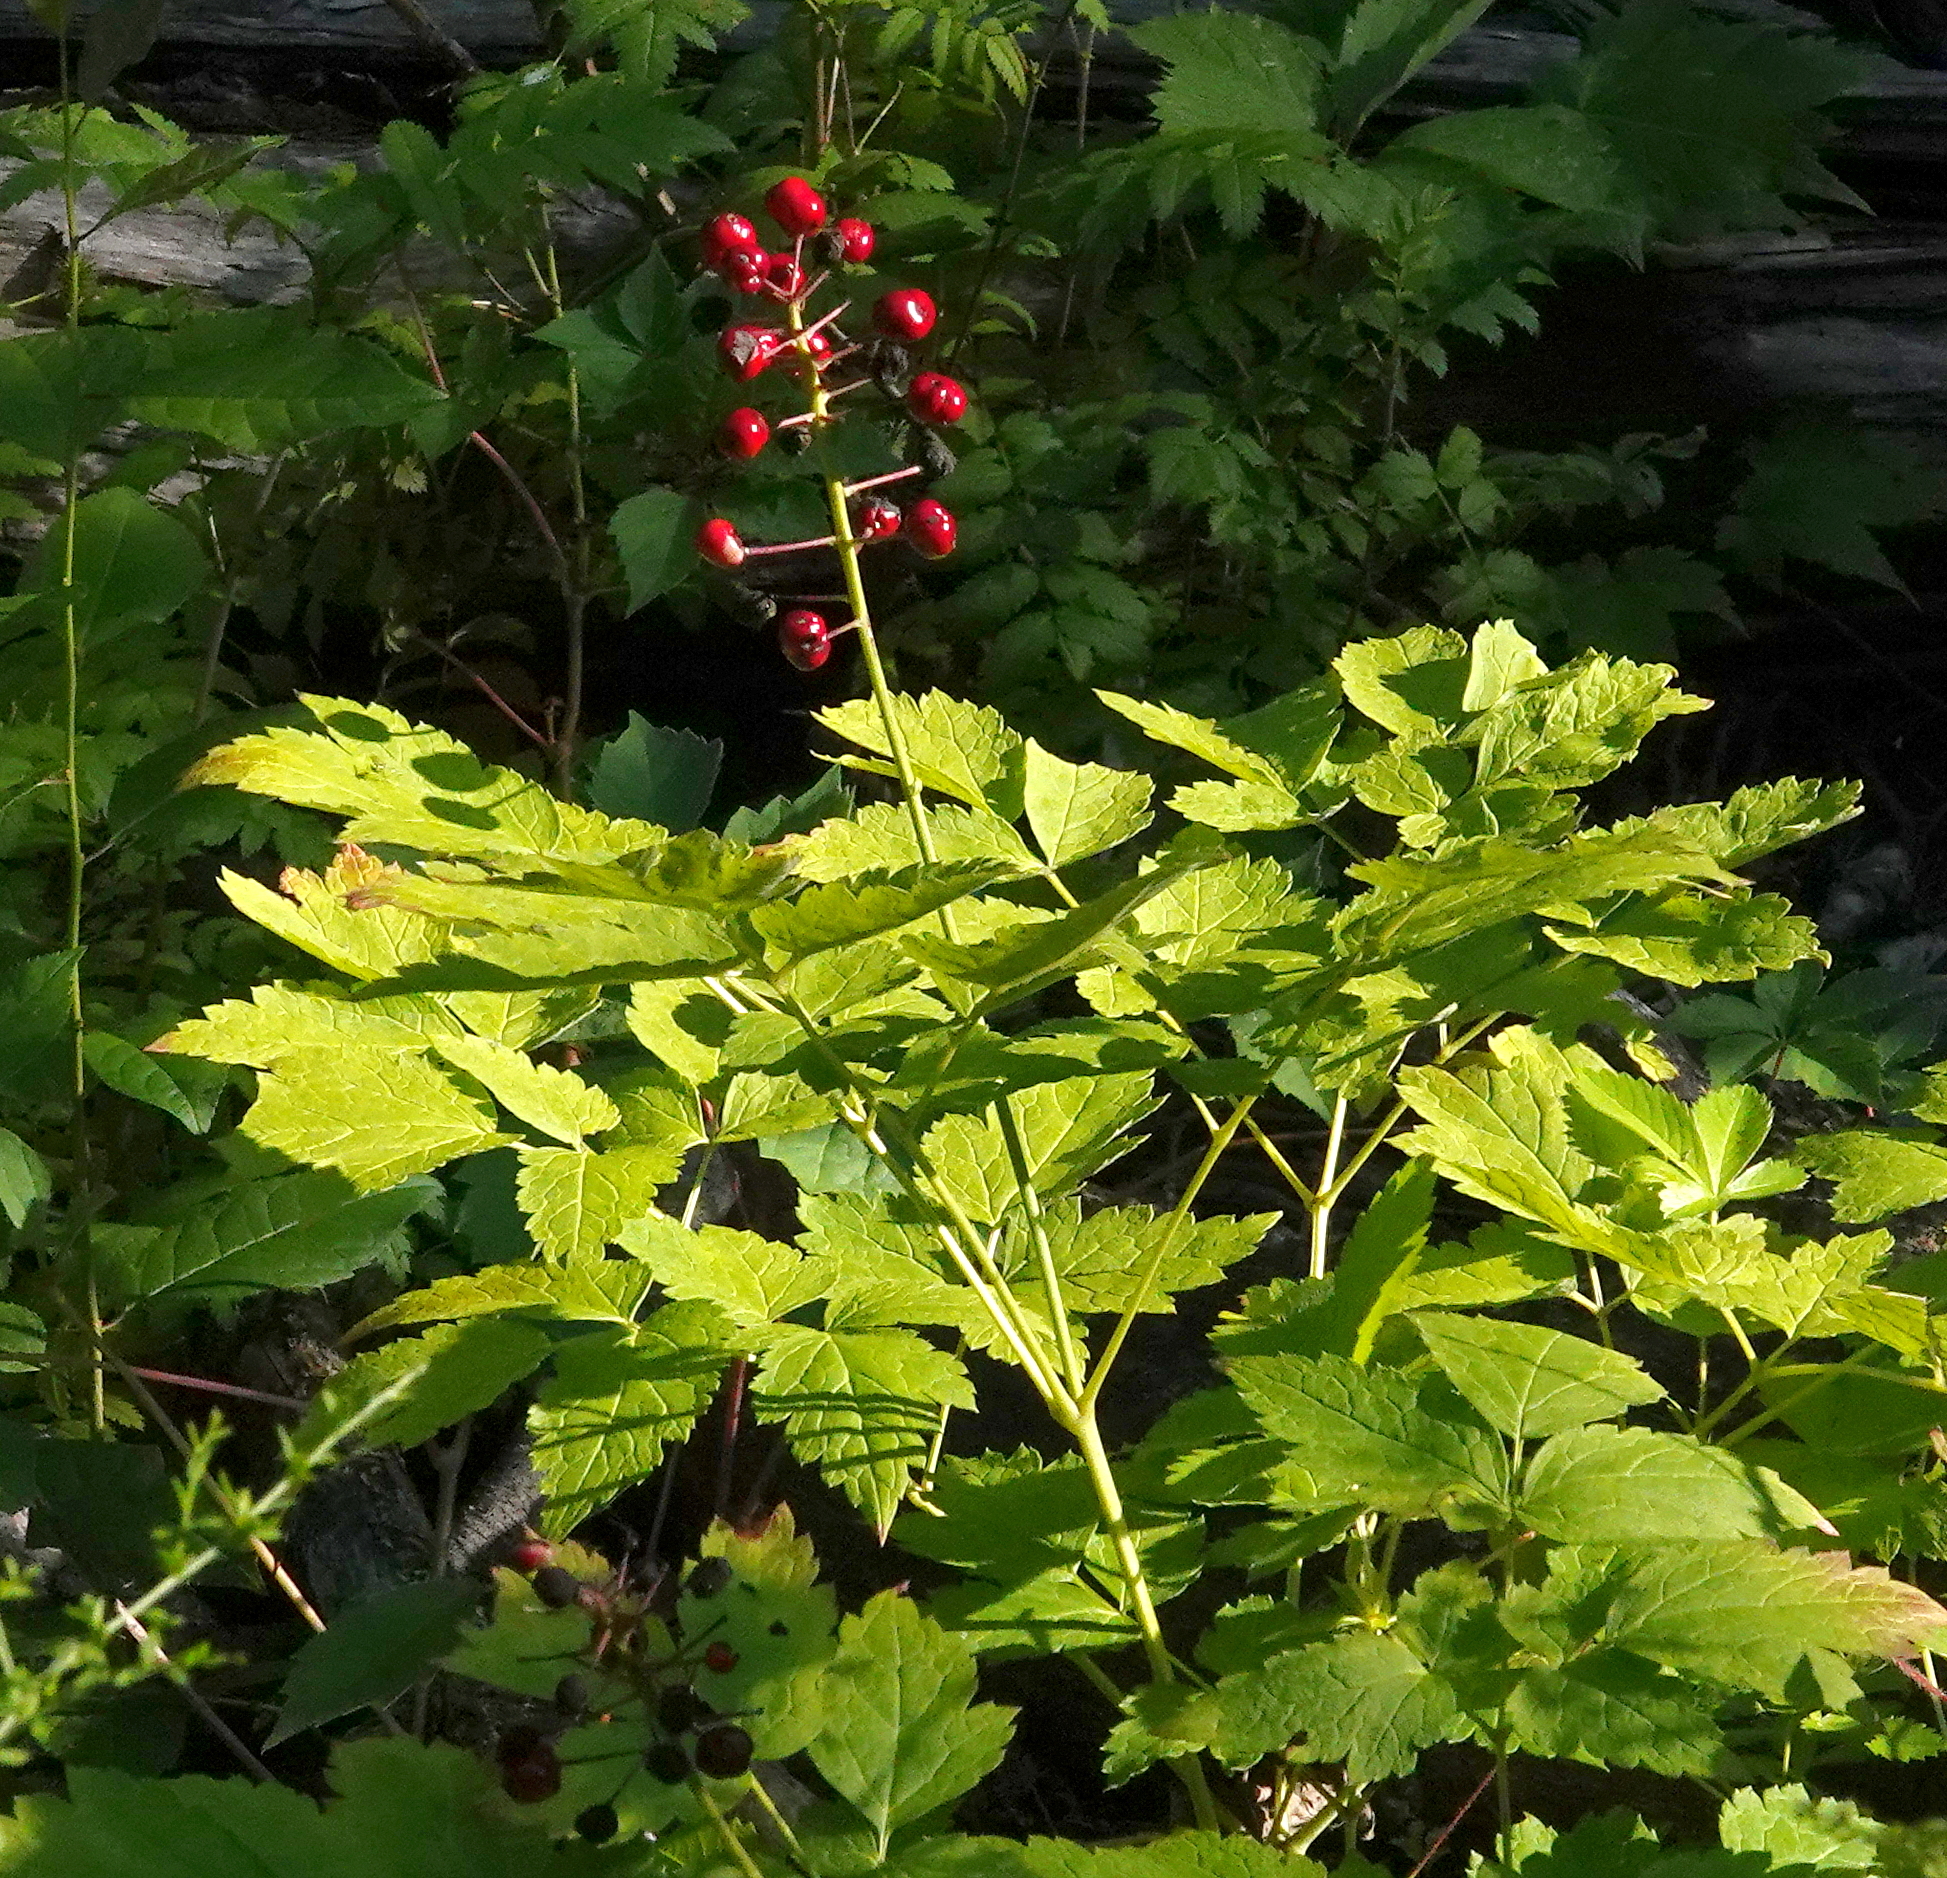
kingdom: Plantae
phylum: Tracheophyta
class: Magnoliopsida
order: Ranunculales
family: Ranunculaceae
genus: Actaea
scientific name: Actaea rubra
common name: Red baneberry
